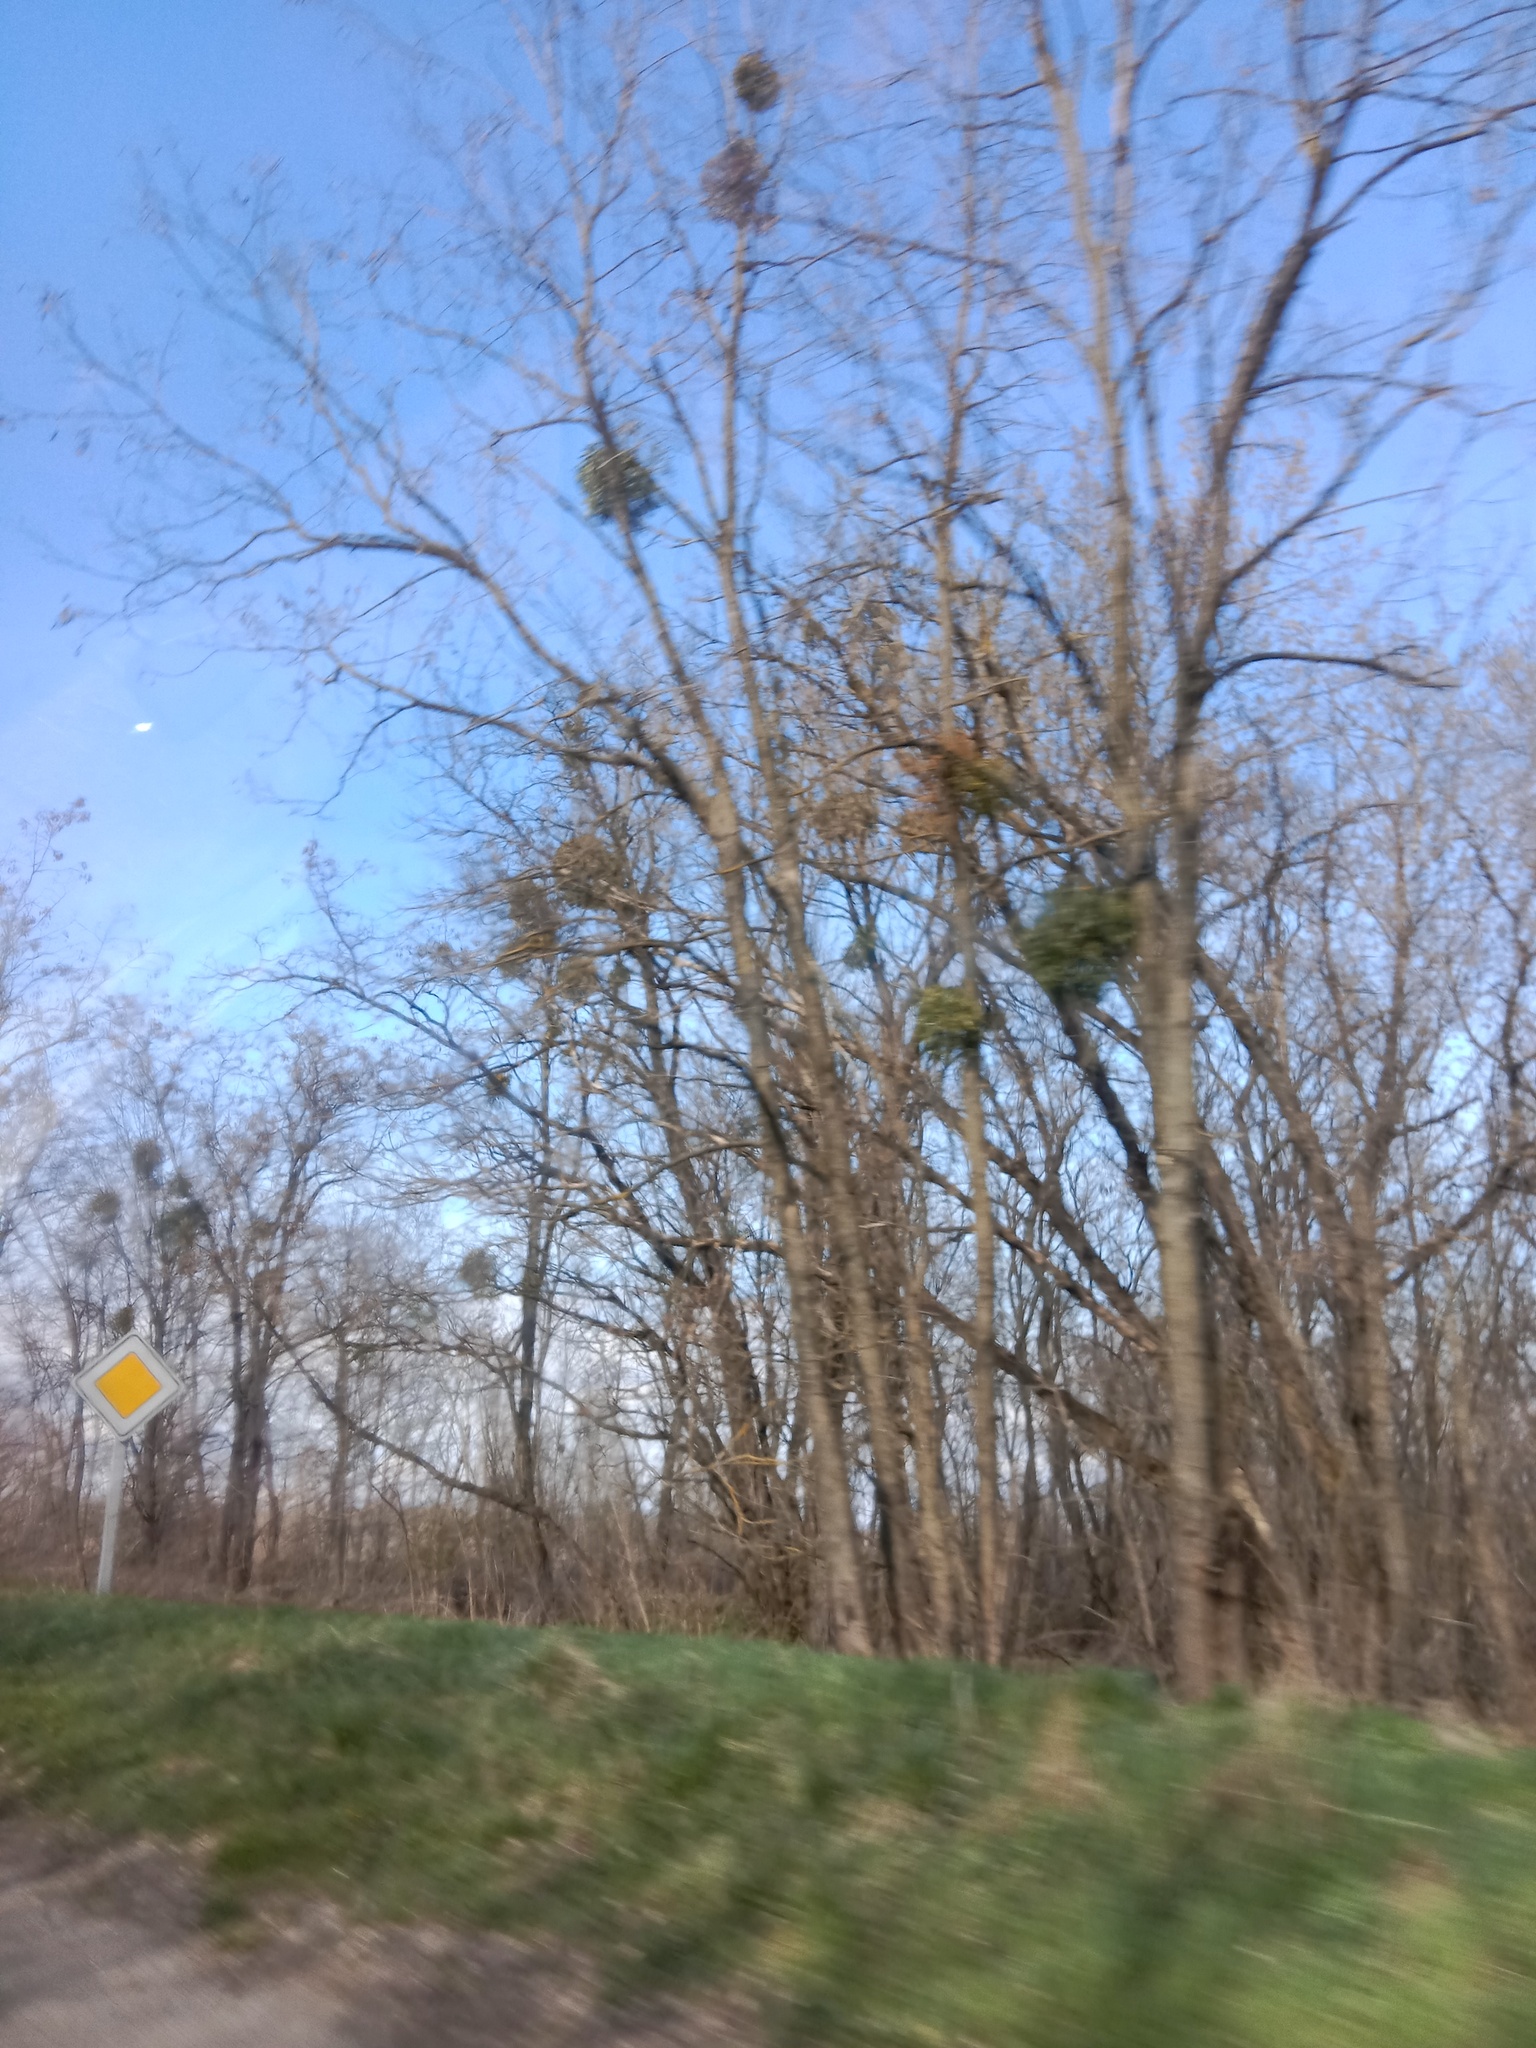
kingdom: Plantae
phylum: Tracheophyta
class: Magnoliopsida
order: Santalales
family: Viscaceae
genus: Viscum
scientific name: Viscum album
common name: Mistletoe
